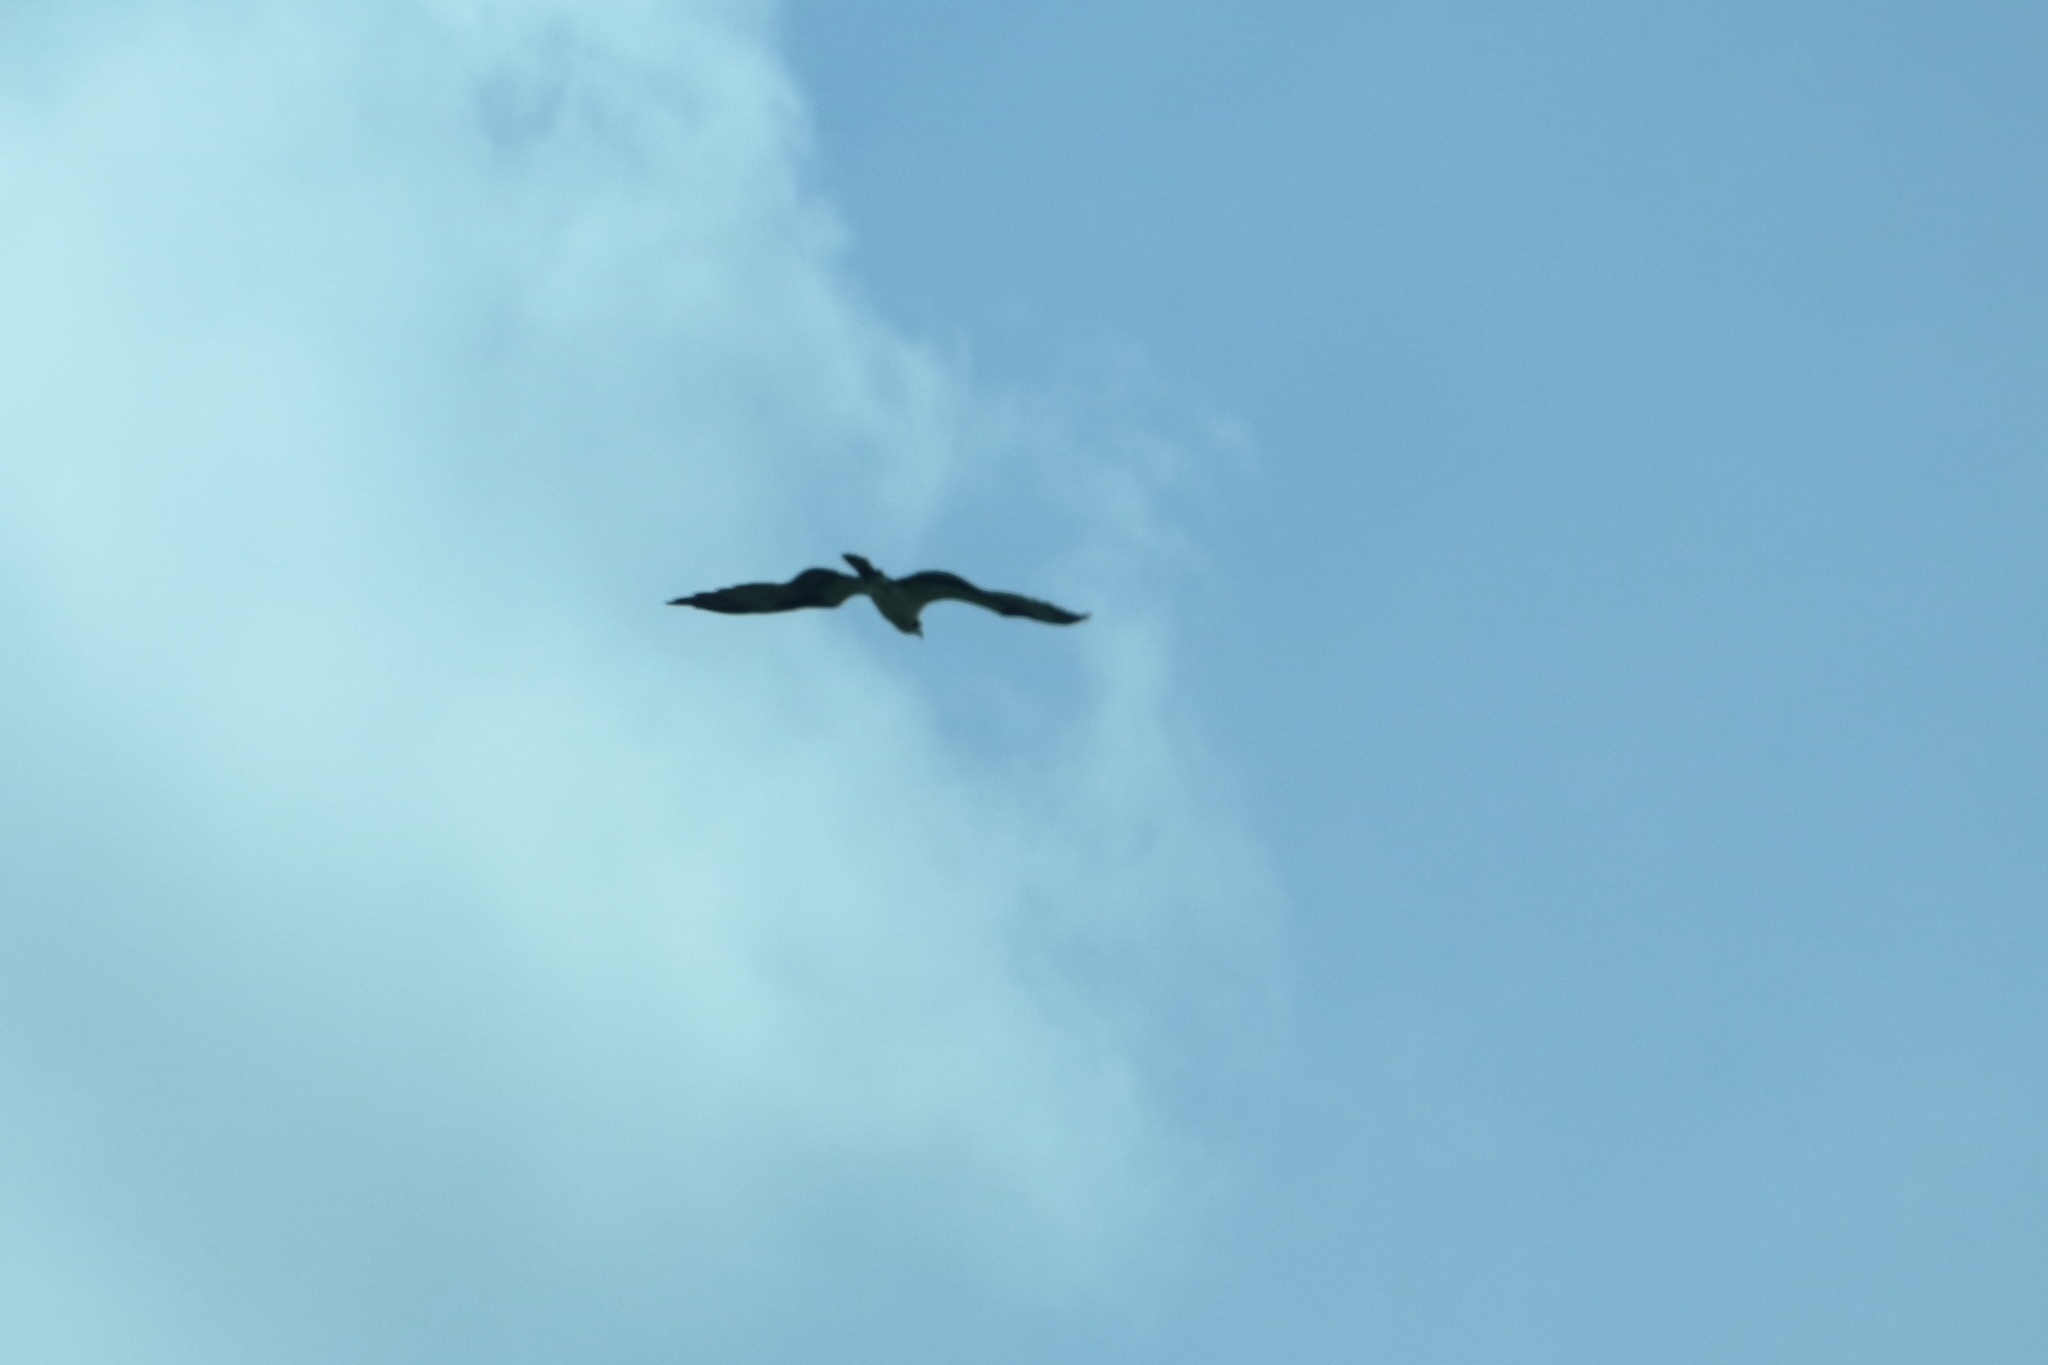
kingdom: Animalia
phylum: Chordata
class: Aves
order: Accipitriformes
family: Pandionidae
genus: Pandion
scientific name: Pandion haliaetus
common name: Osprey
